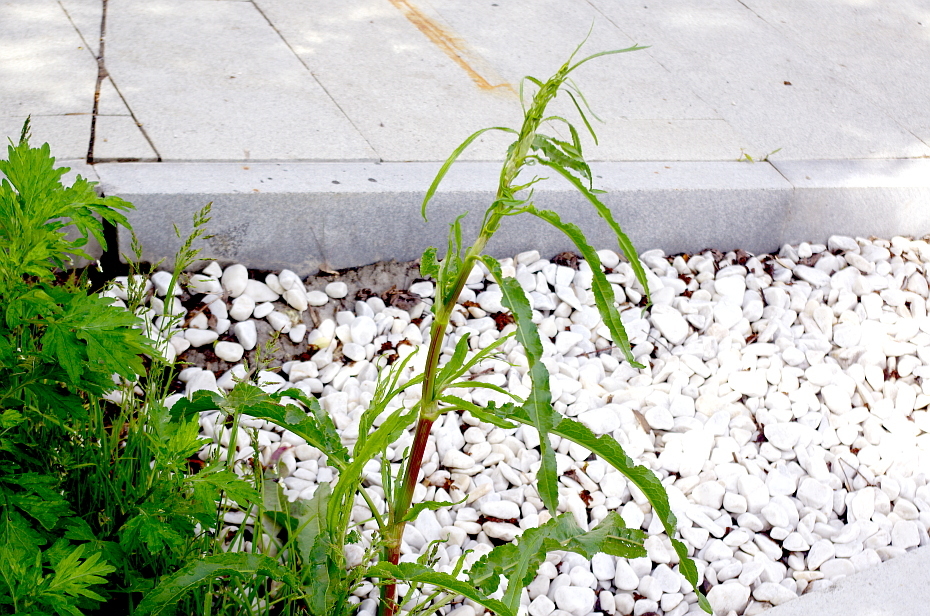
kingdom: Plantae
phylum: Tracheophyta
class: Magnoliopsida
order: Caryophyllales
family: Polygonaceae
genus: Rumex
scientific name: Rumex crispus
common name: Curled dock
